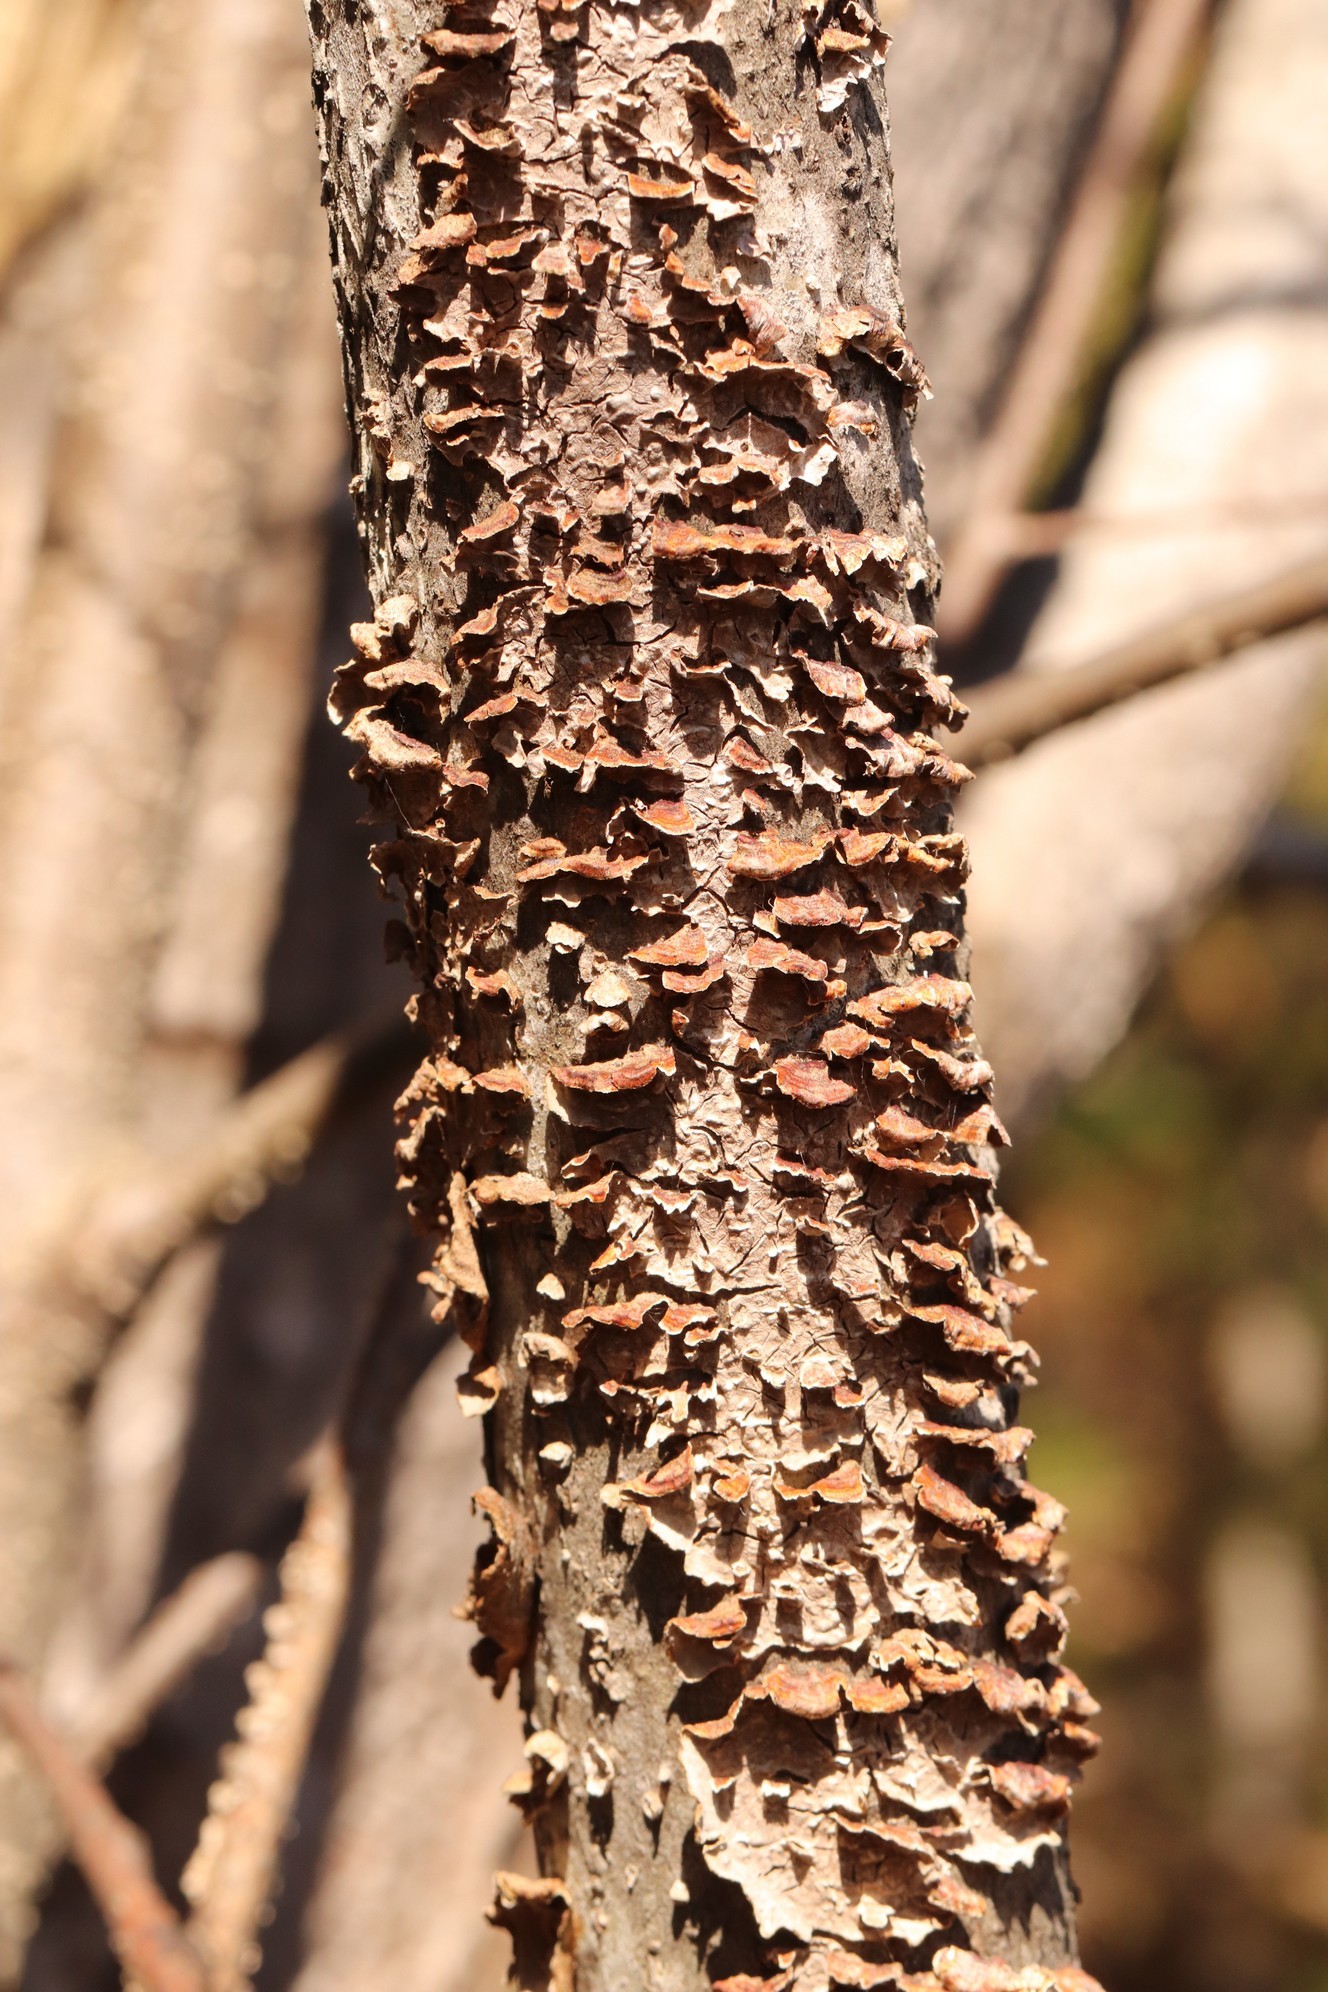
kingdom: Fungi
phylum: Basidiomycota
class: Agaricomycetes
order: Hymenochaetales
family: Hymenochaetaceae
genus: Hydnoporia
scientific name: Hydnoporia tabacina
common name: Willow glue
